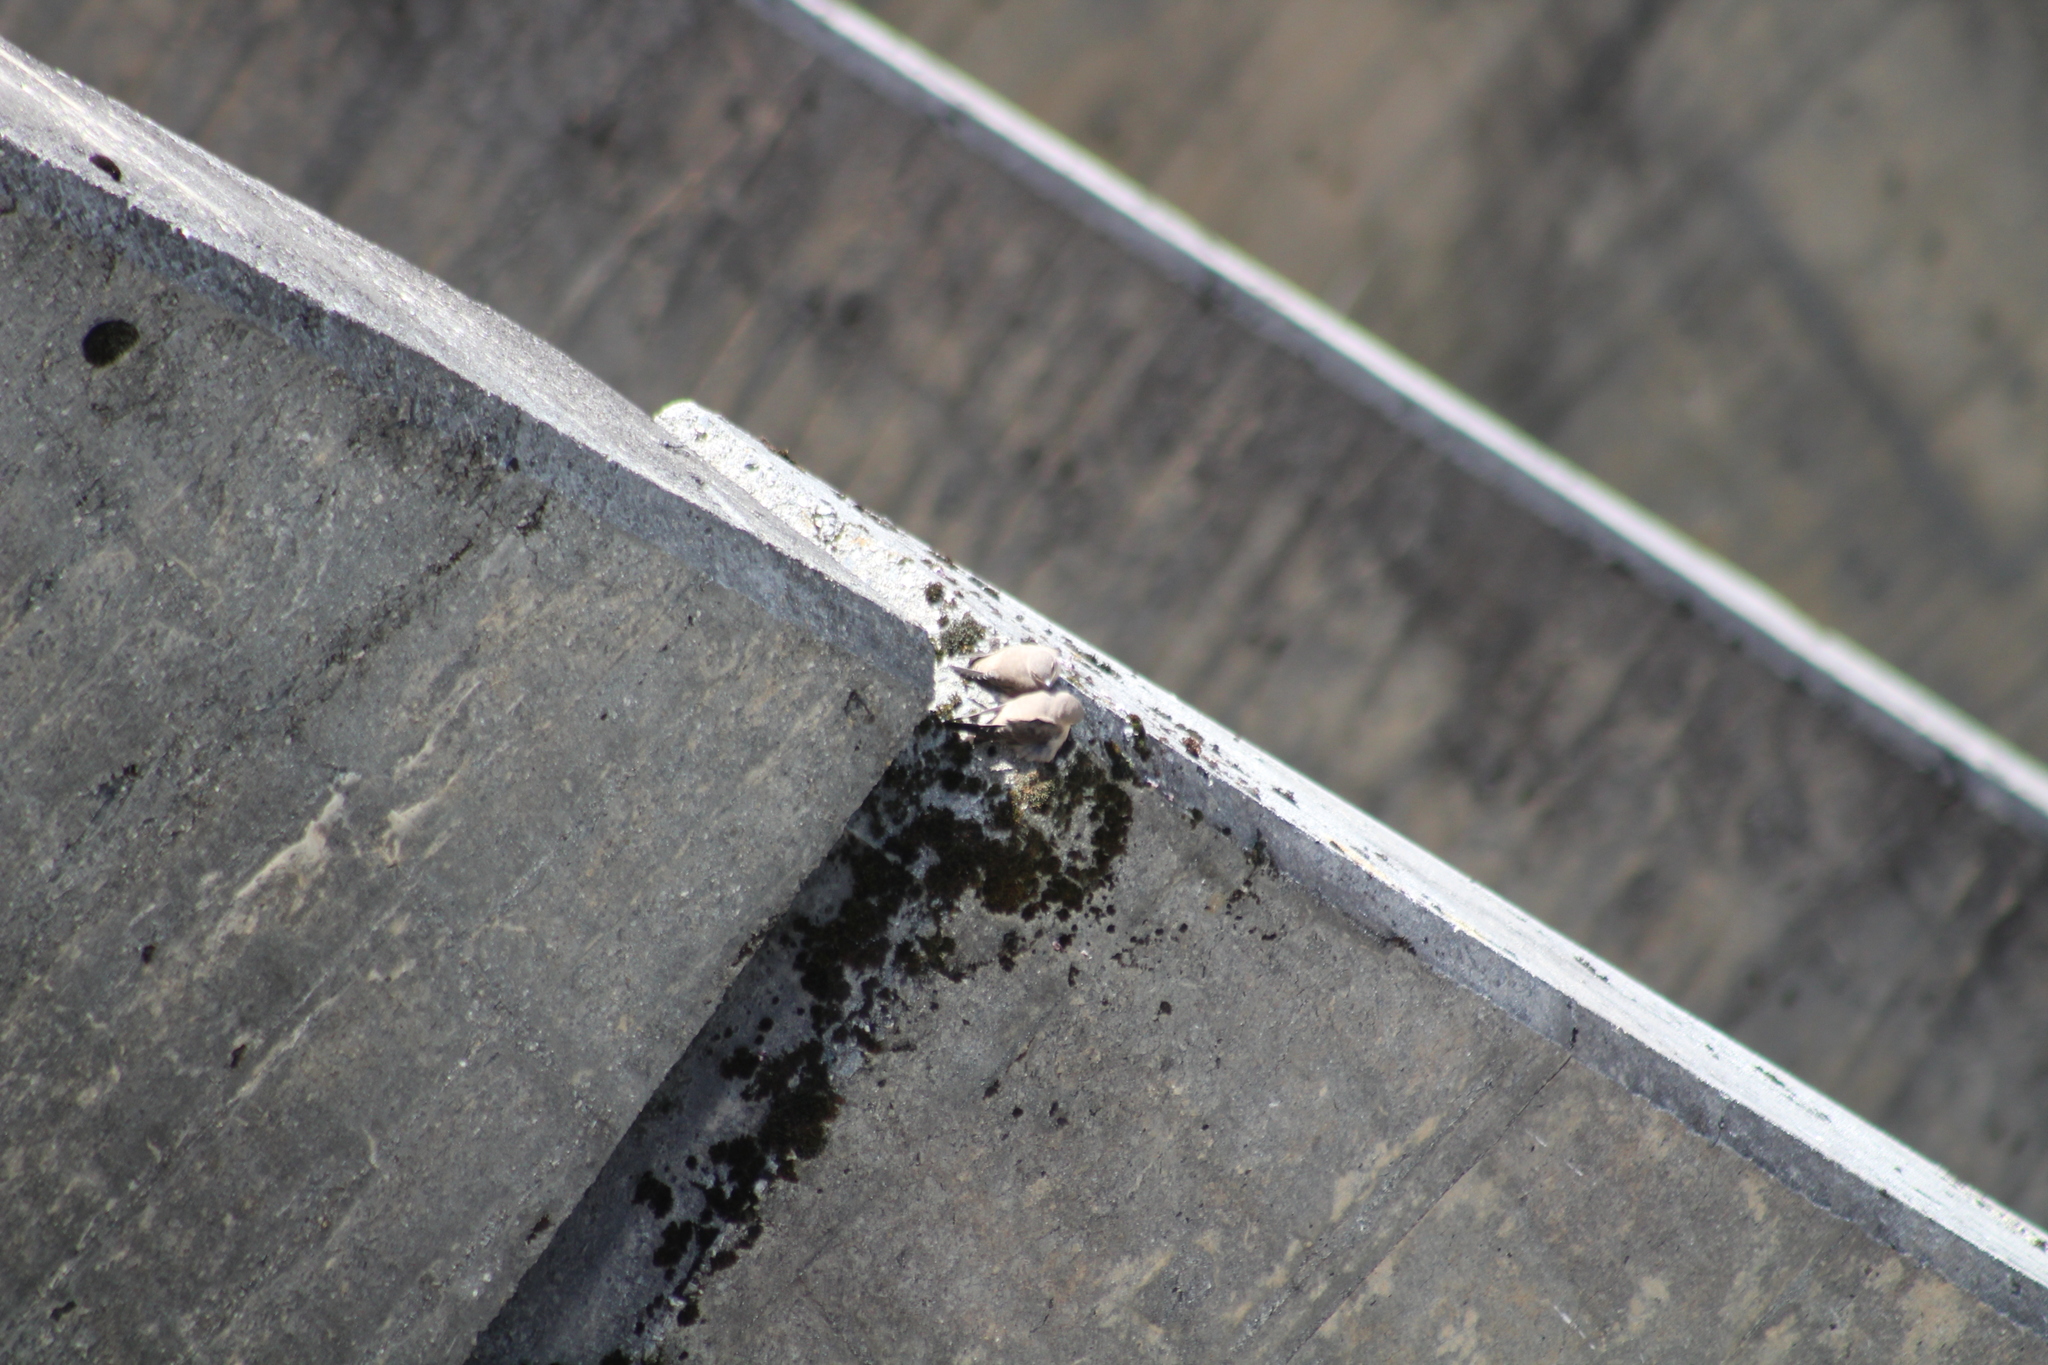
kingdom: Animalia
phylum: Chordata
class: Aves
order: Passeriformes
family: Hirundinidae
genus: Ptyonoprogne
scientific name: Ptyonoprogne rupestris
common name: Eurasian crag martin
